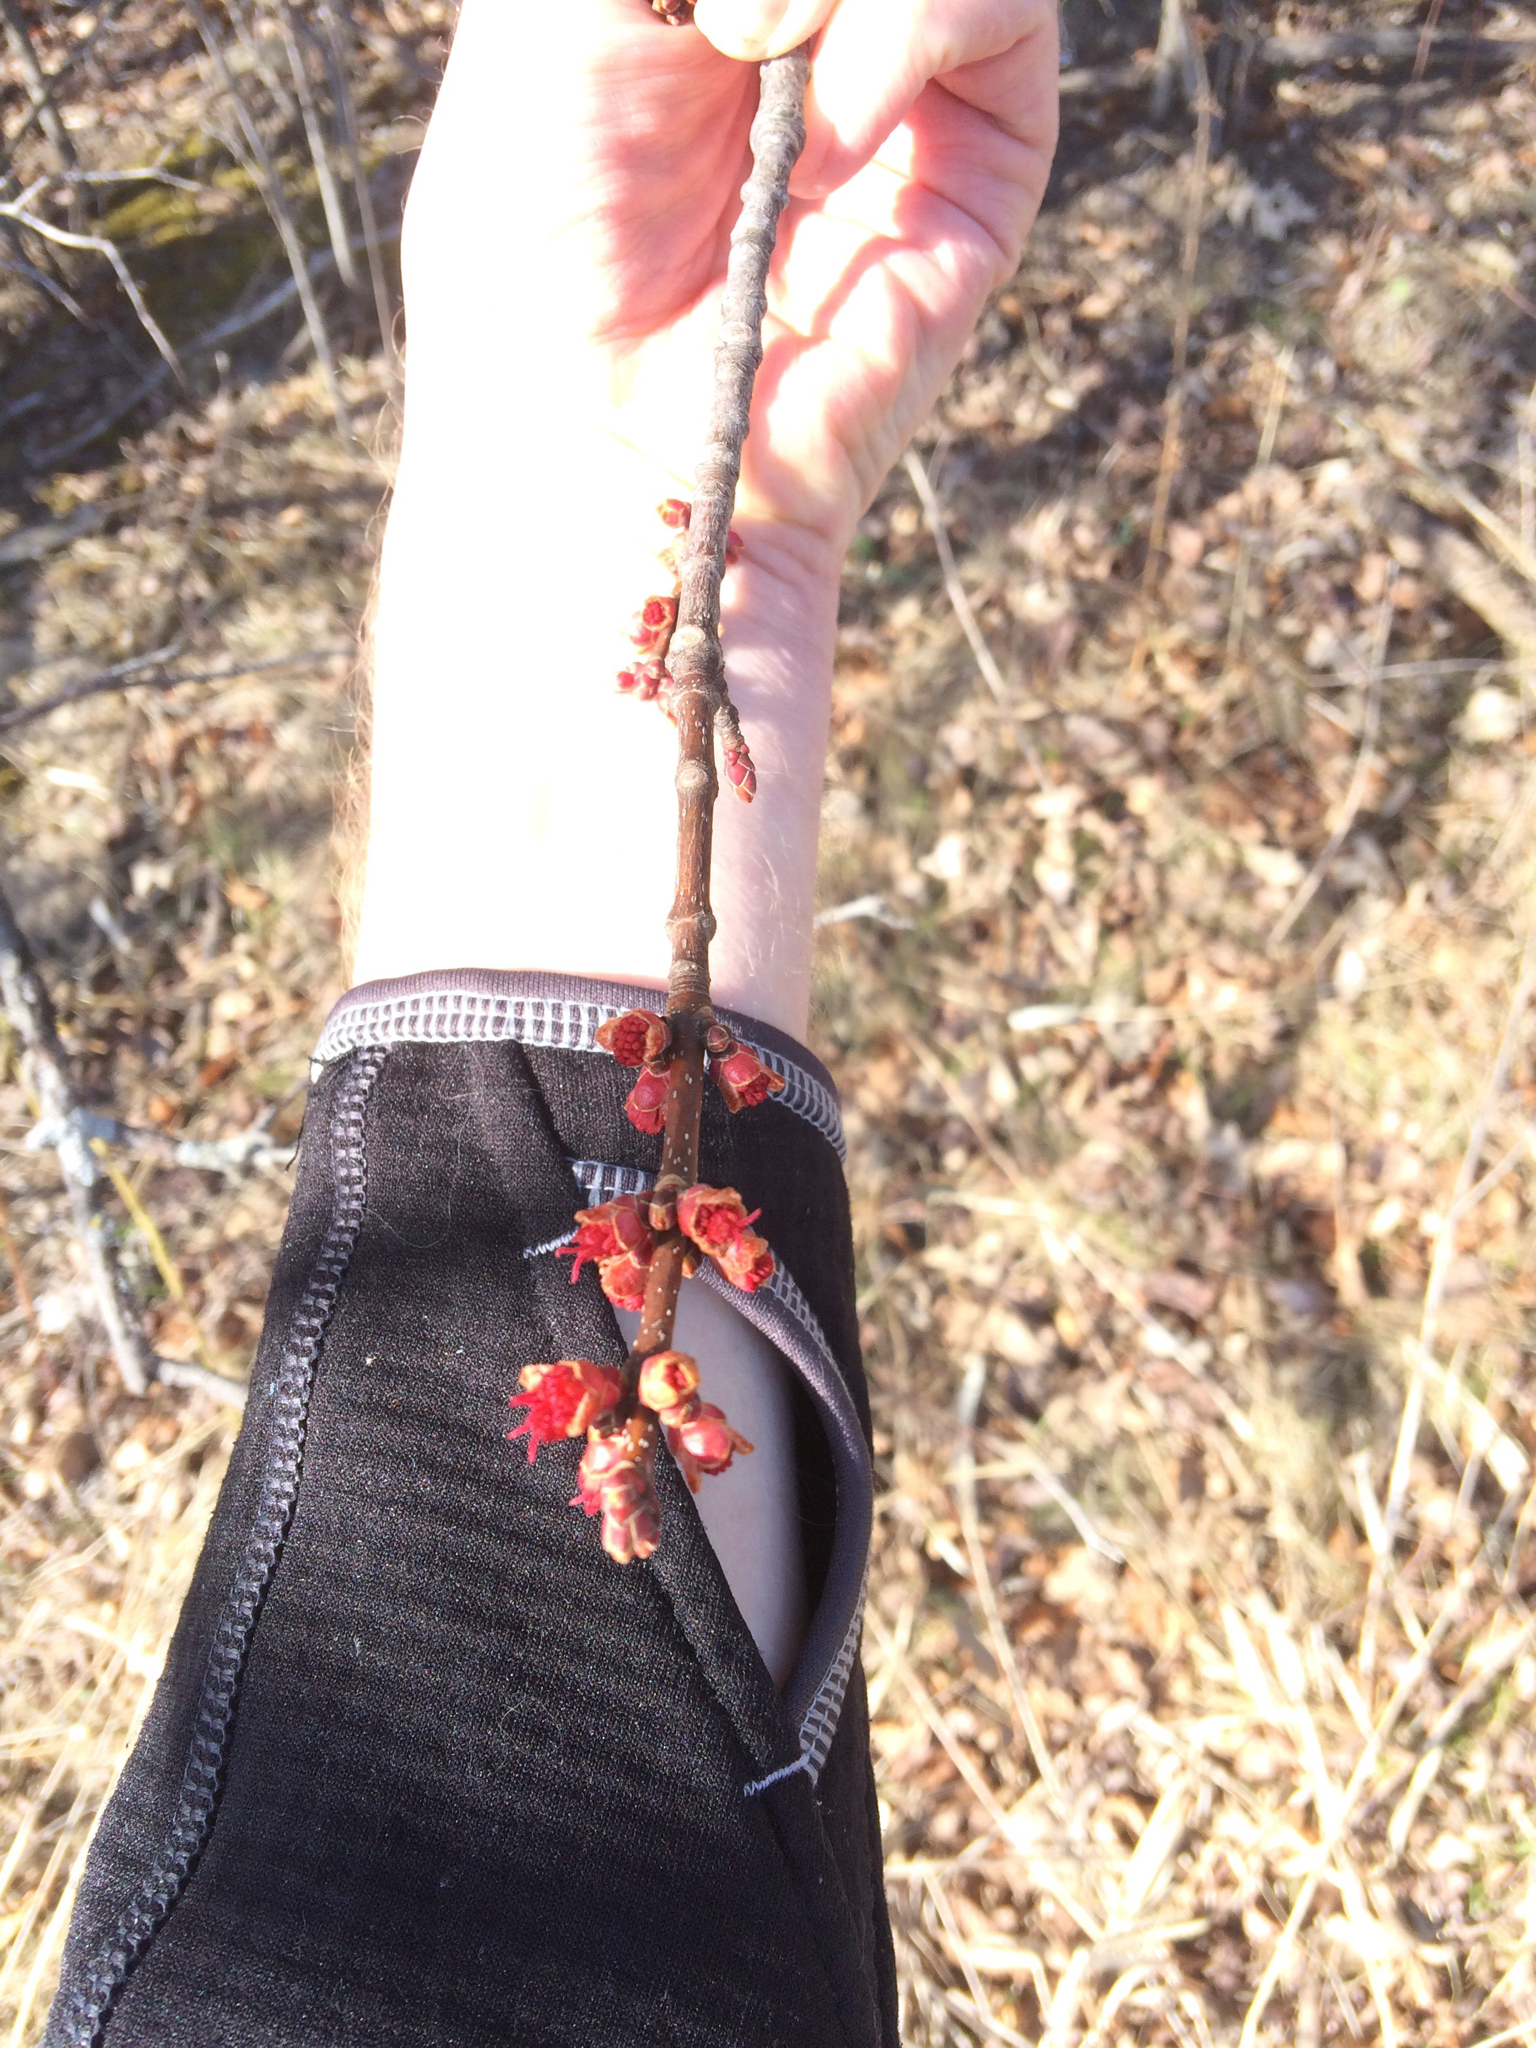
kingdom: Plantae
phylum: Tracheophyta
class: Magnoliopsida
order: Sapindales
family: Sapindaceae
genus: Acer
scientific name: Acer rubrum
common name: Red maple
